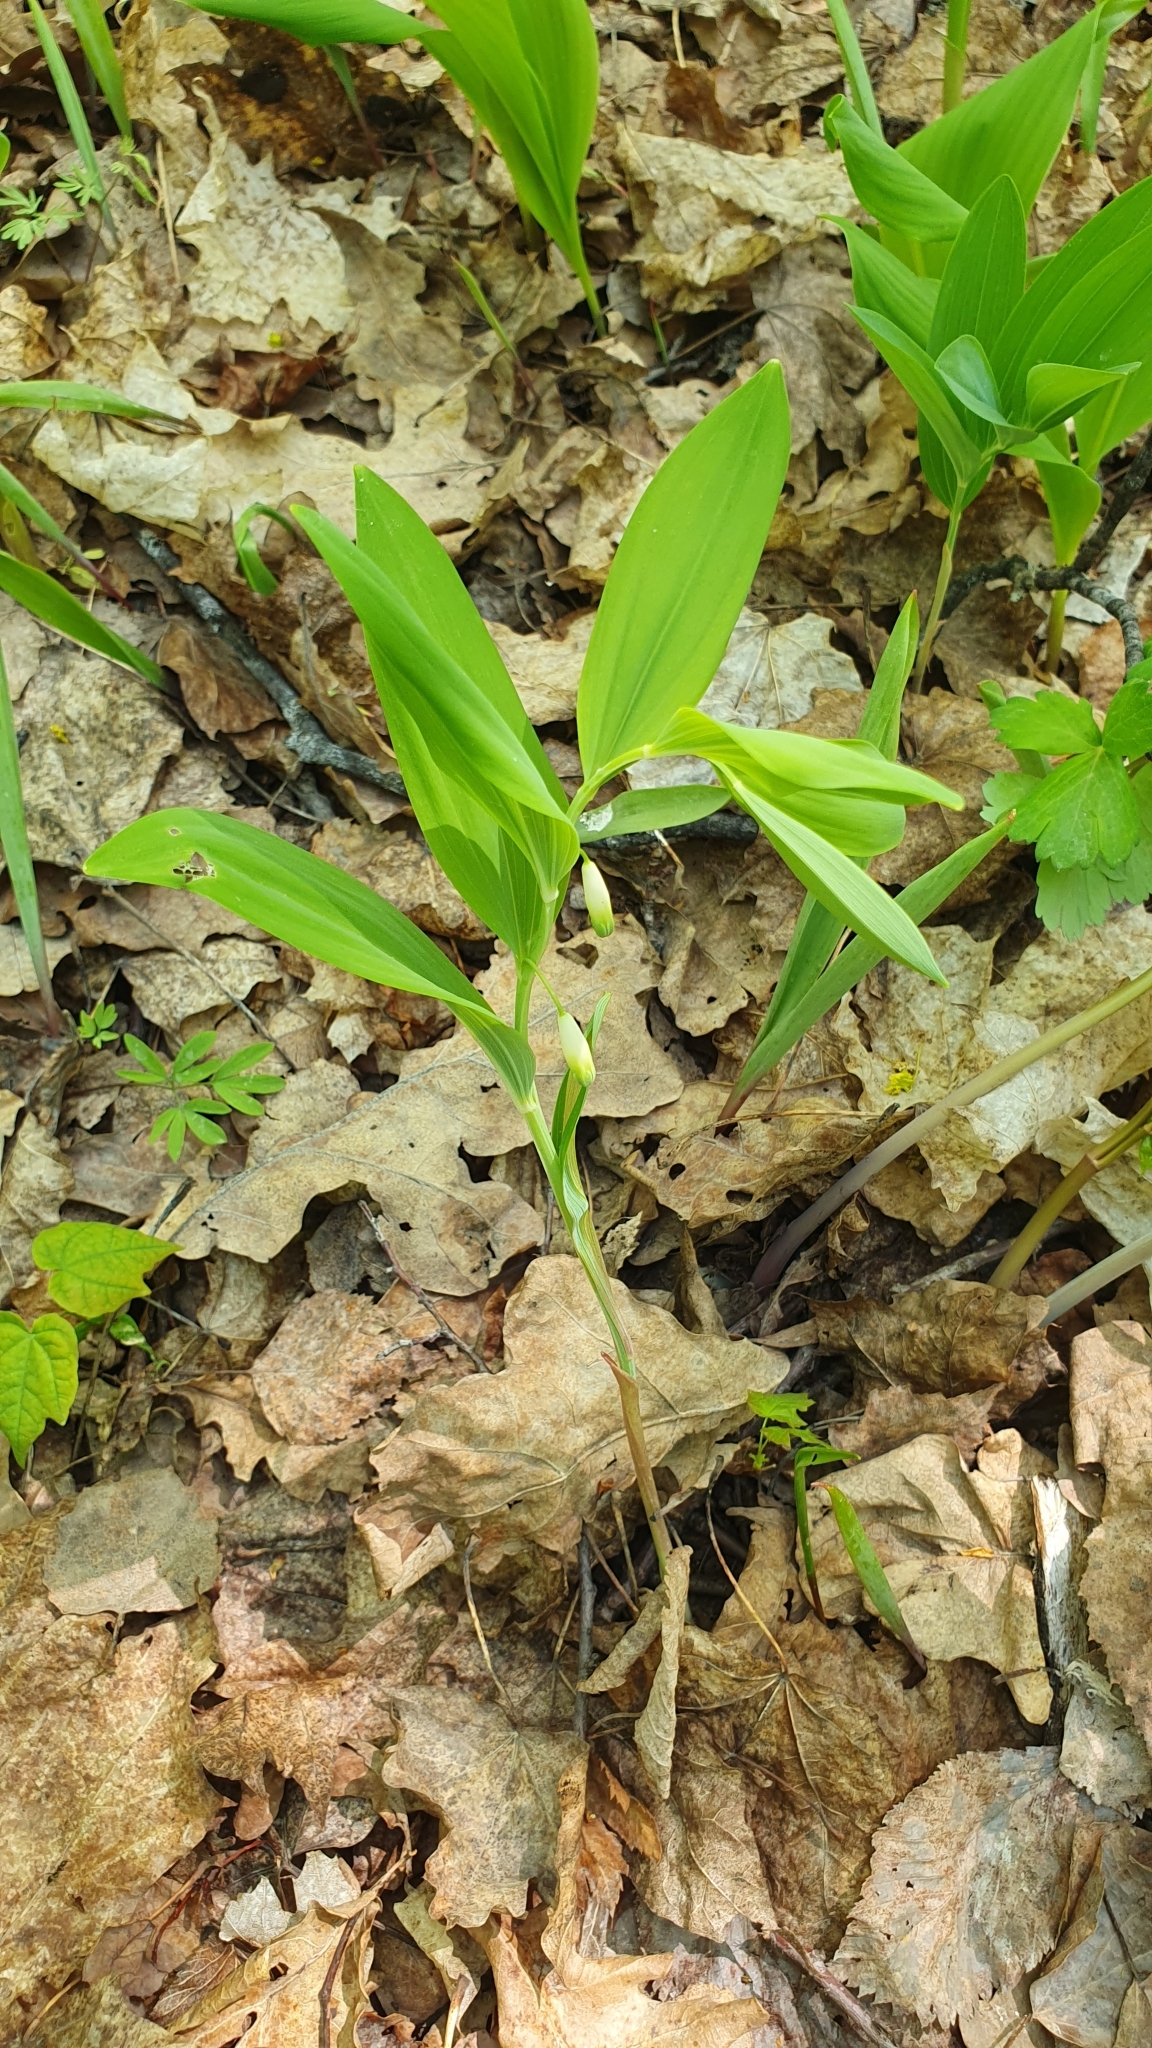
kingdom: Plantae
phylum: Tracheophyta
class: Liliopsida
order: Asparagales
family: Asparagaceae
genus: Polygonatum
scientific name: Polygonatum odoratum
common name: Angular solomon's-seal
